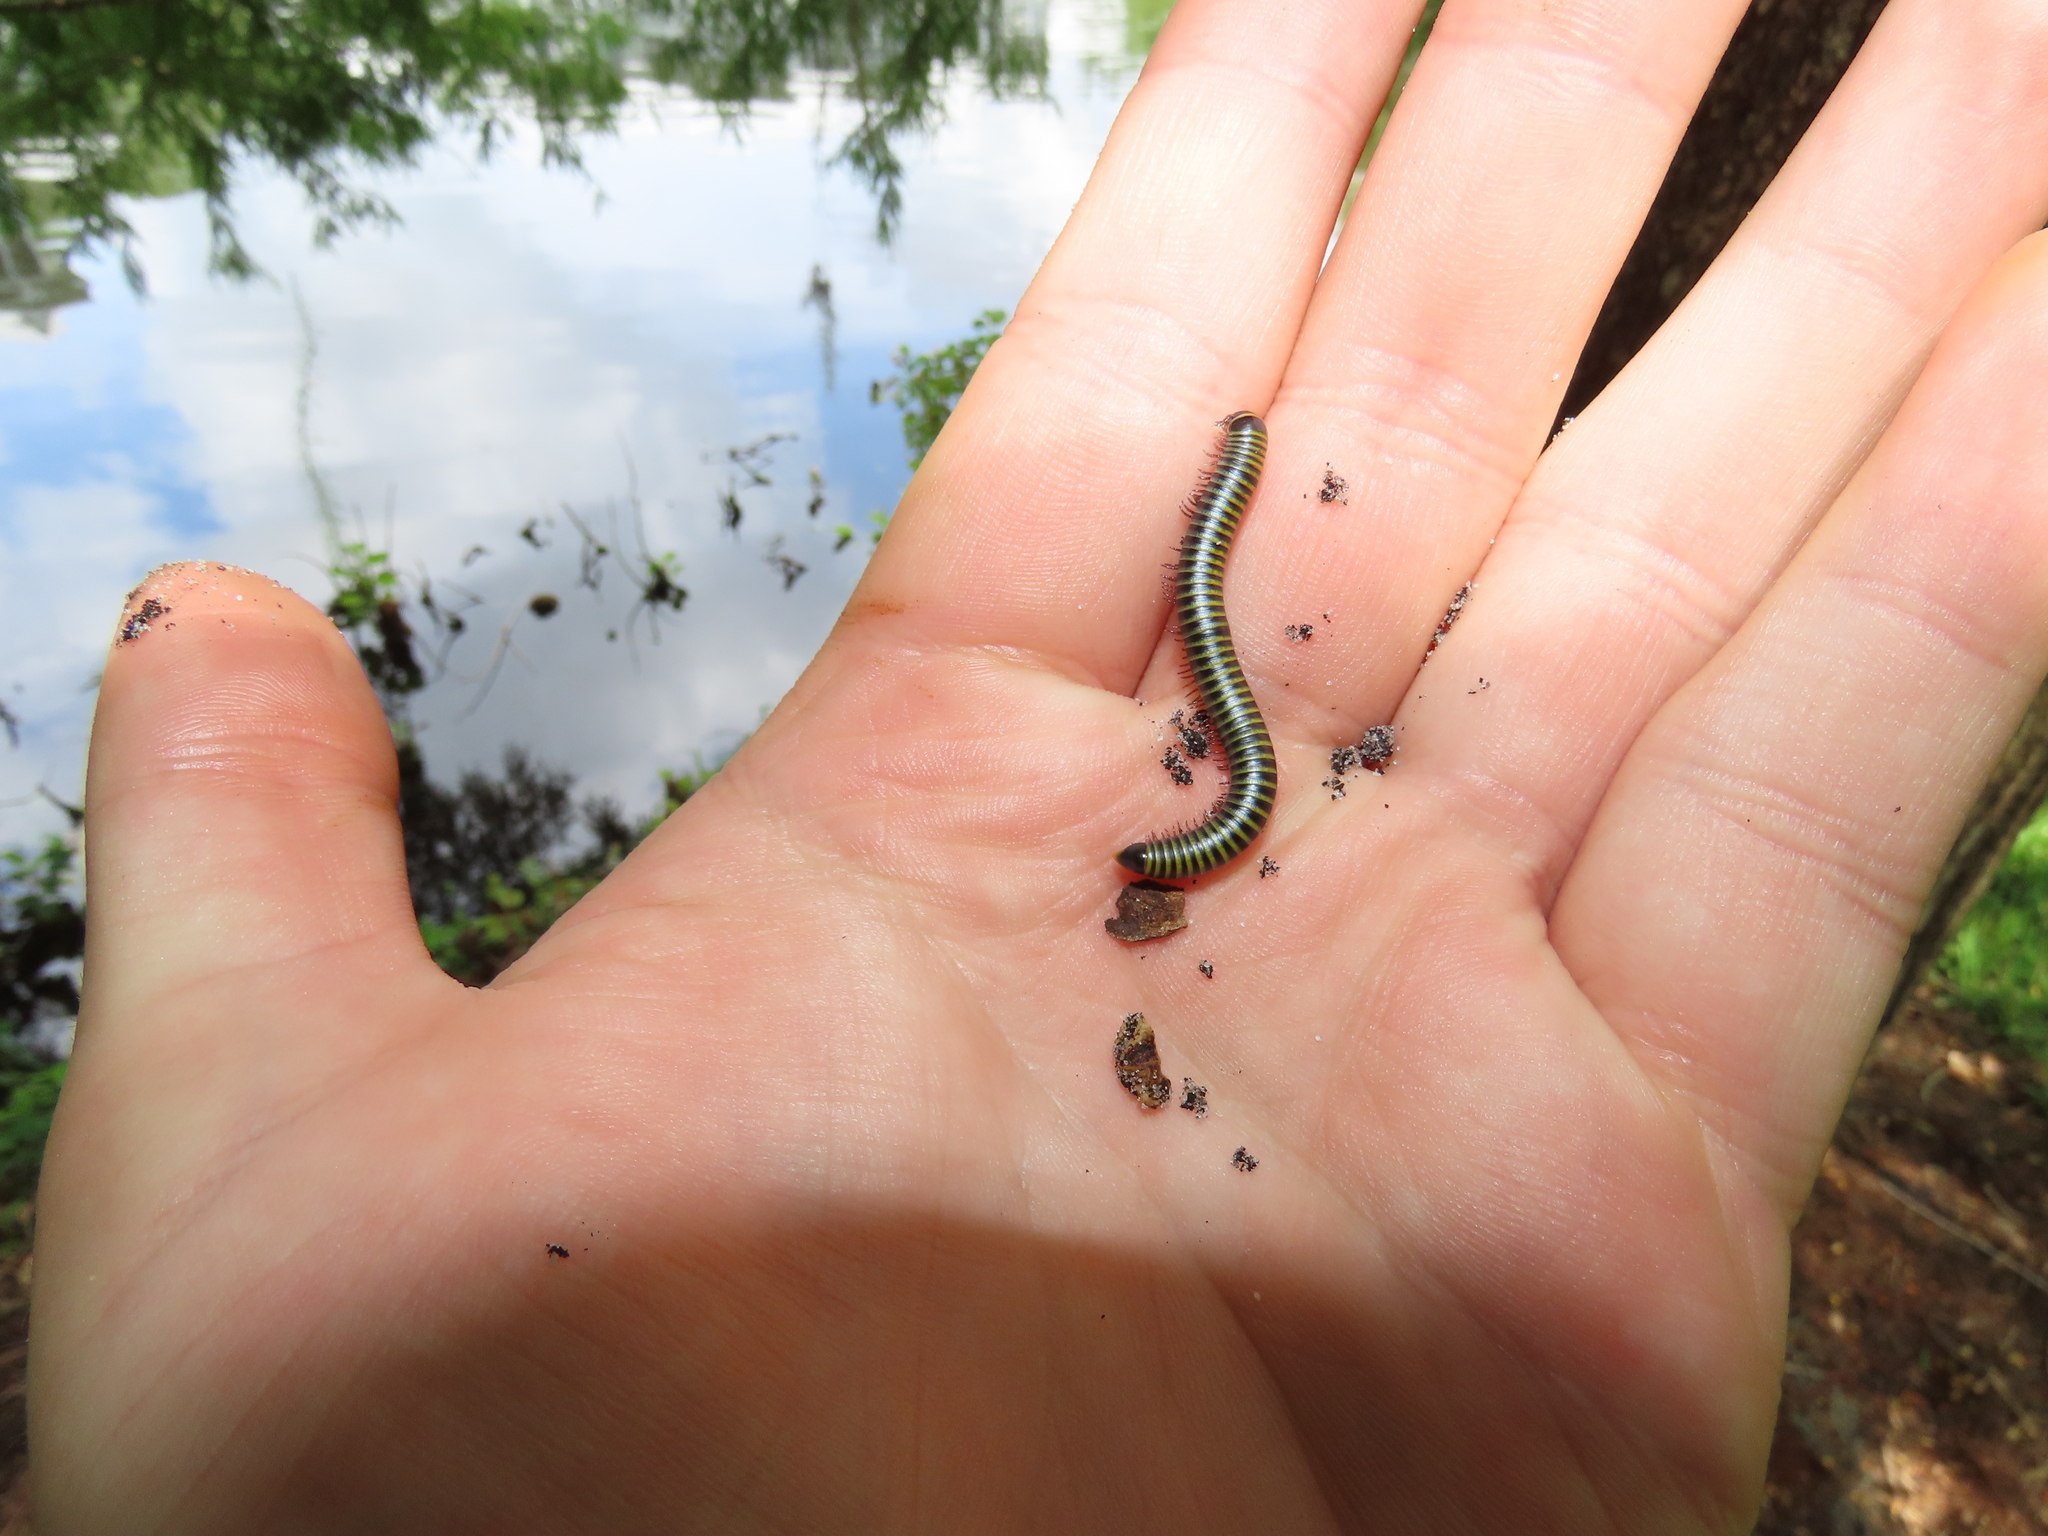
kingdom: Animalia
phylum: Arthropoda
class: Diplopoda
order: Spirobolida
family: Rhinocricidae
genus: Anadenobolus
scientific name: Anadenobolus monilicornis
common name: Caribbean millipede
